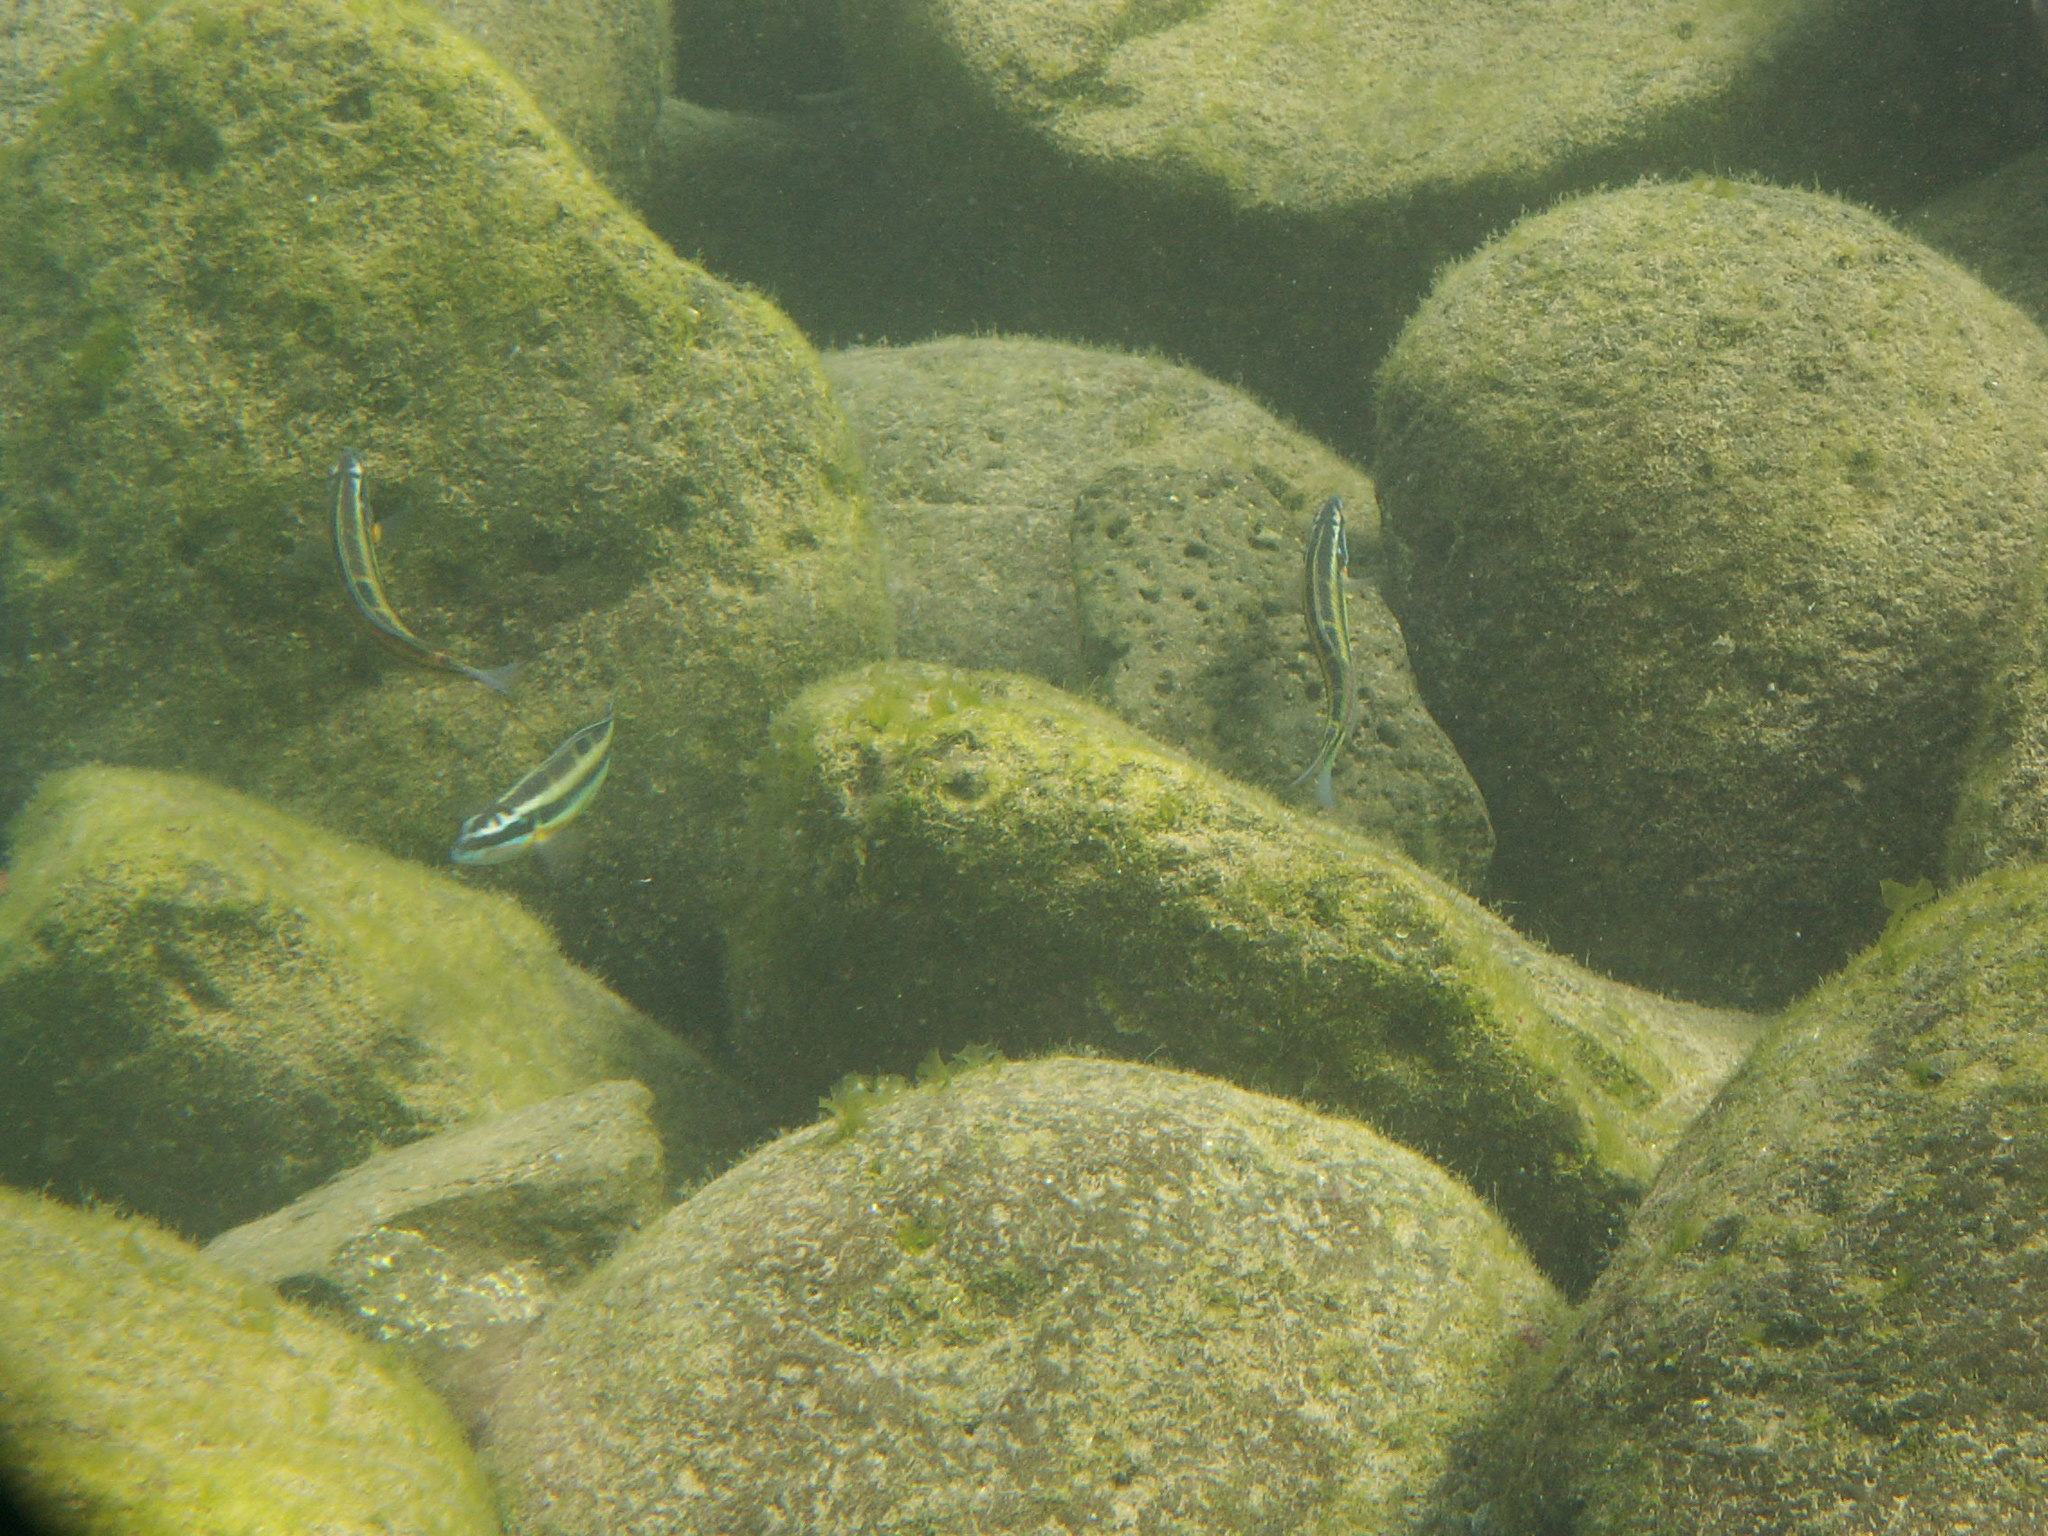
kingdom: Animalia
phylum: Chordata
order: Perciformes
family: Labridae
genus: Thalassoma
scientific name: Thalassoma pavo
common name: Ornate wrasse
